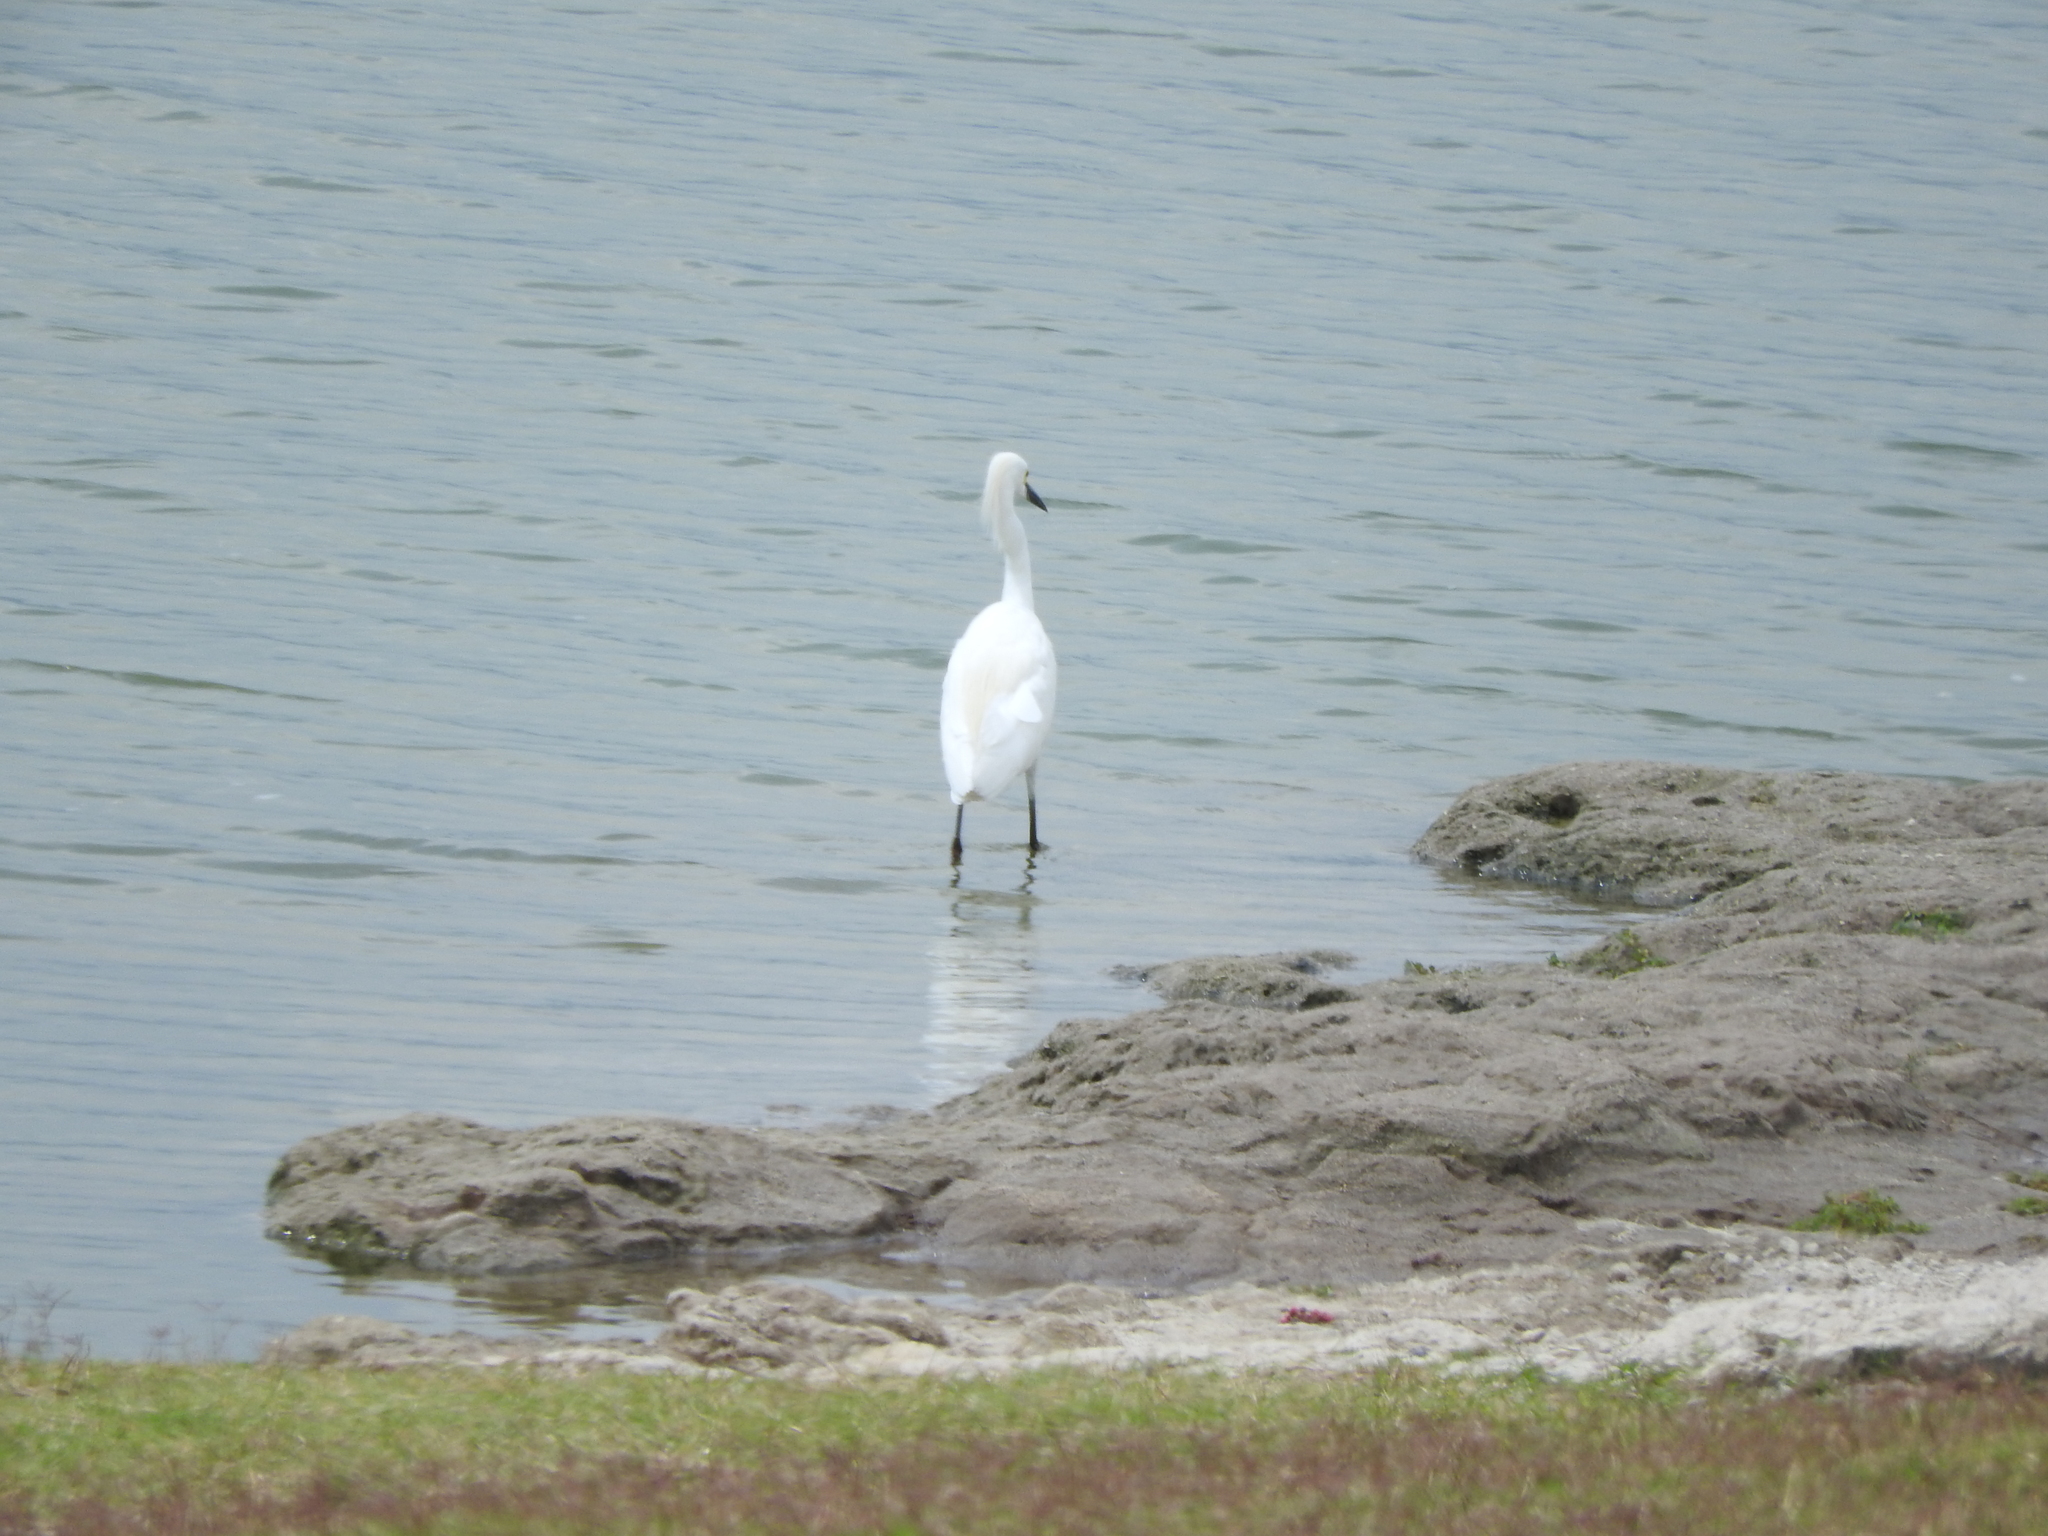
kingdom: Animalia
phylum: Chordata
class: Aves
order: Pelecaniformes
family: Ardeidae
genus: Egretta
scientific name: Egretta thula
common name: Snowy egret
